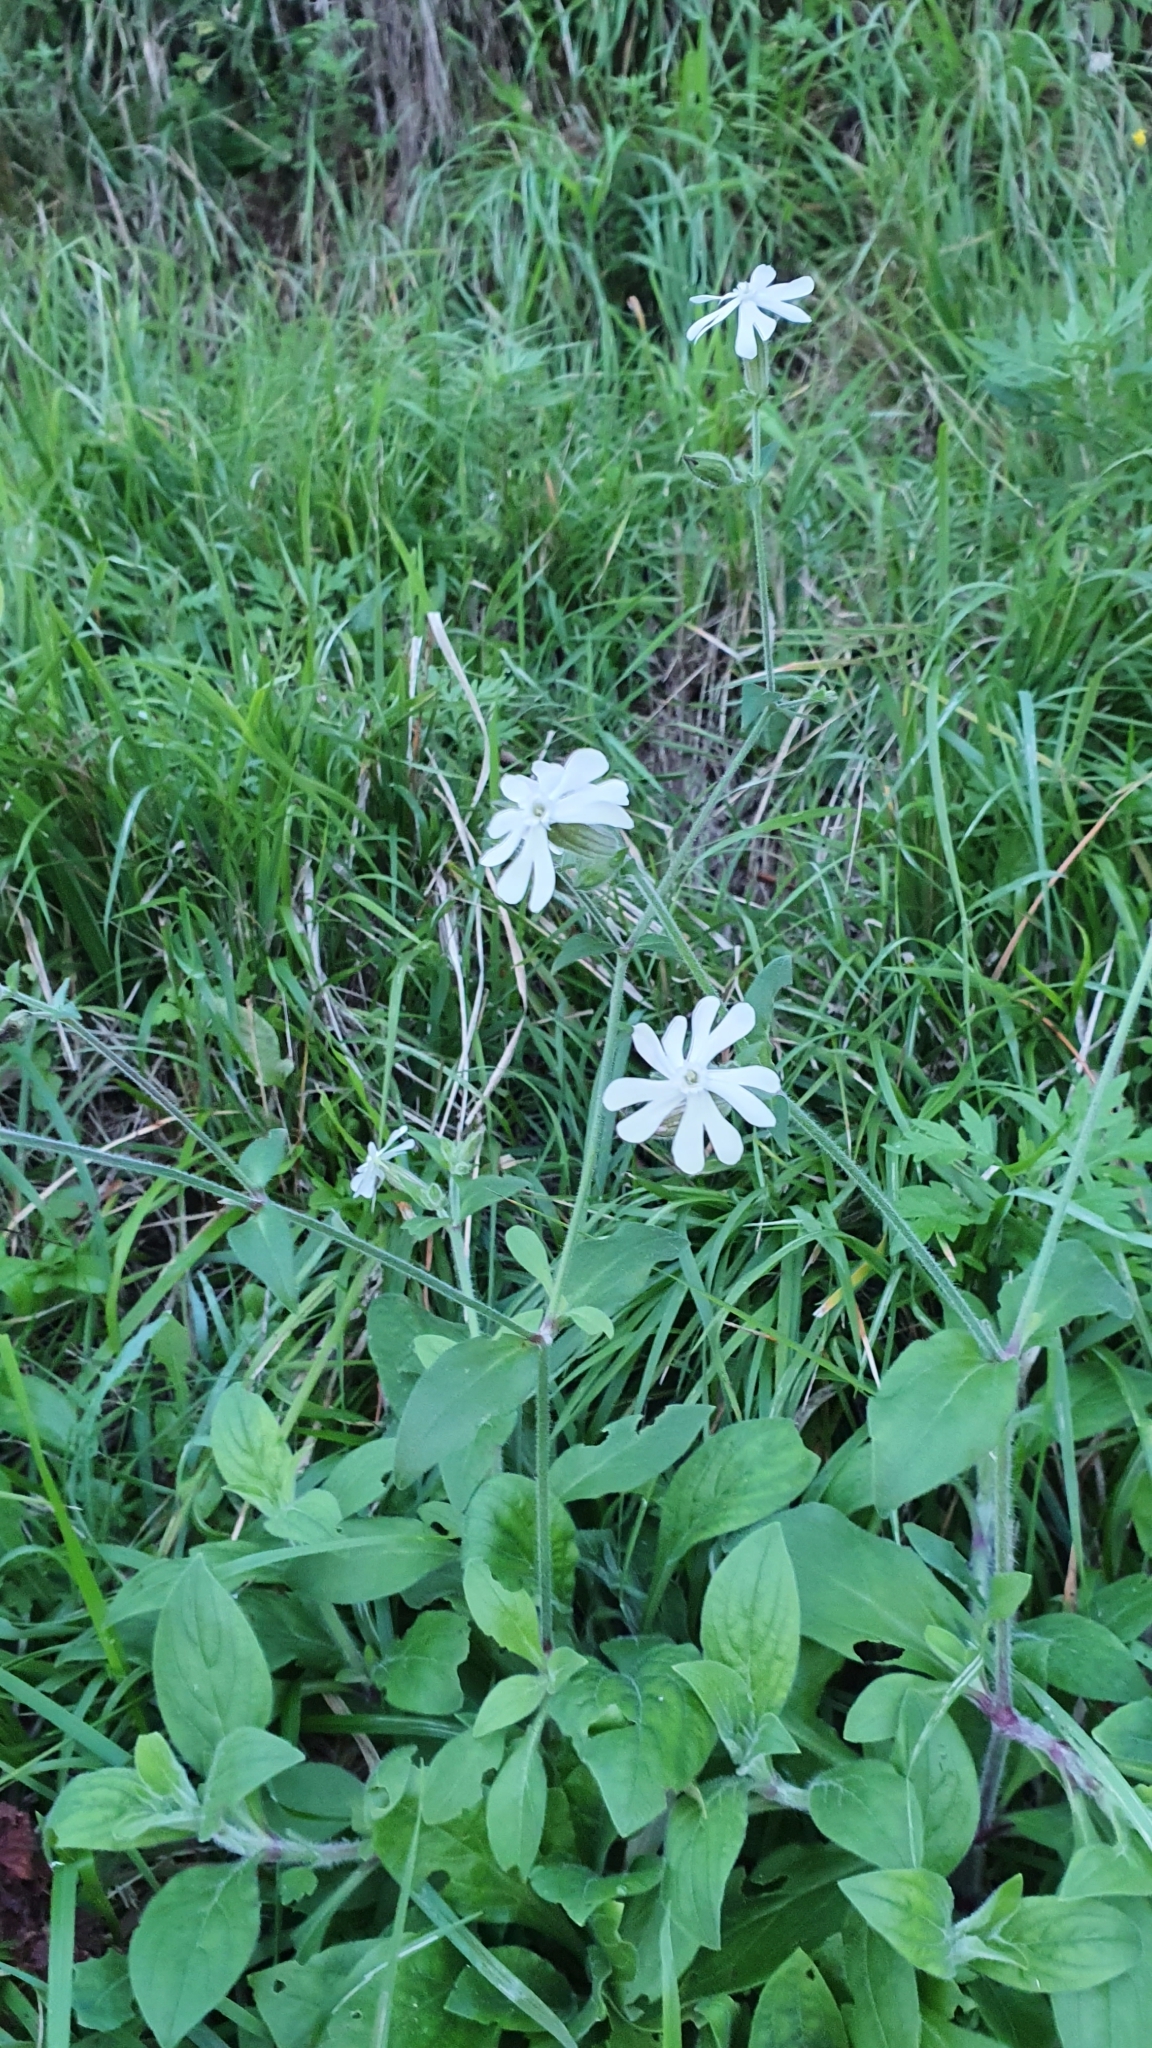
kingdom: Plantae
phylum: Tracheophyta
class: Magnoliopsida
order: Caryophyllales
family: Caryophyllaceae
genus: Silene
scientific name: Silene latifolia
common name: White campion
